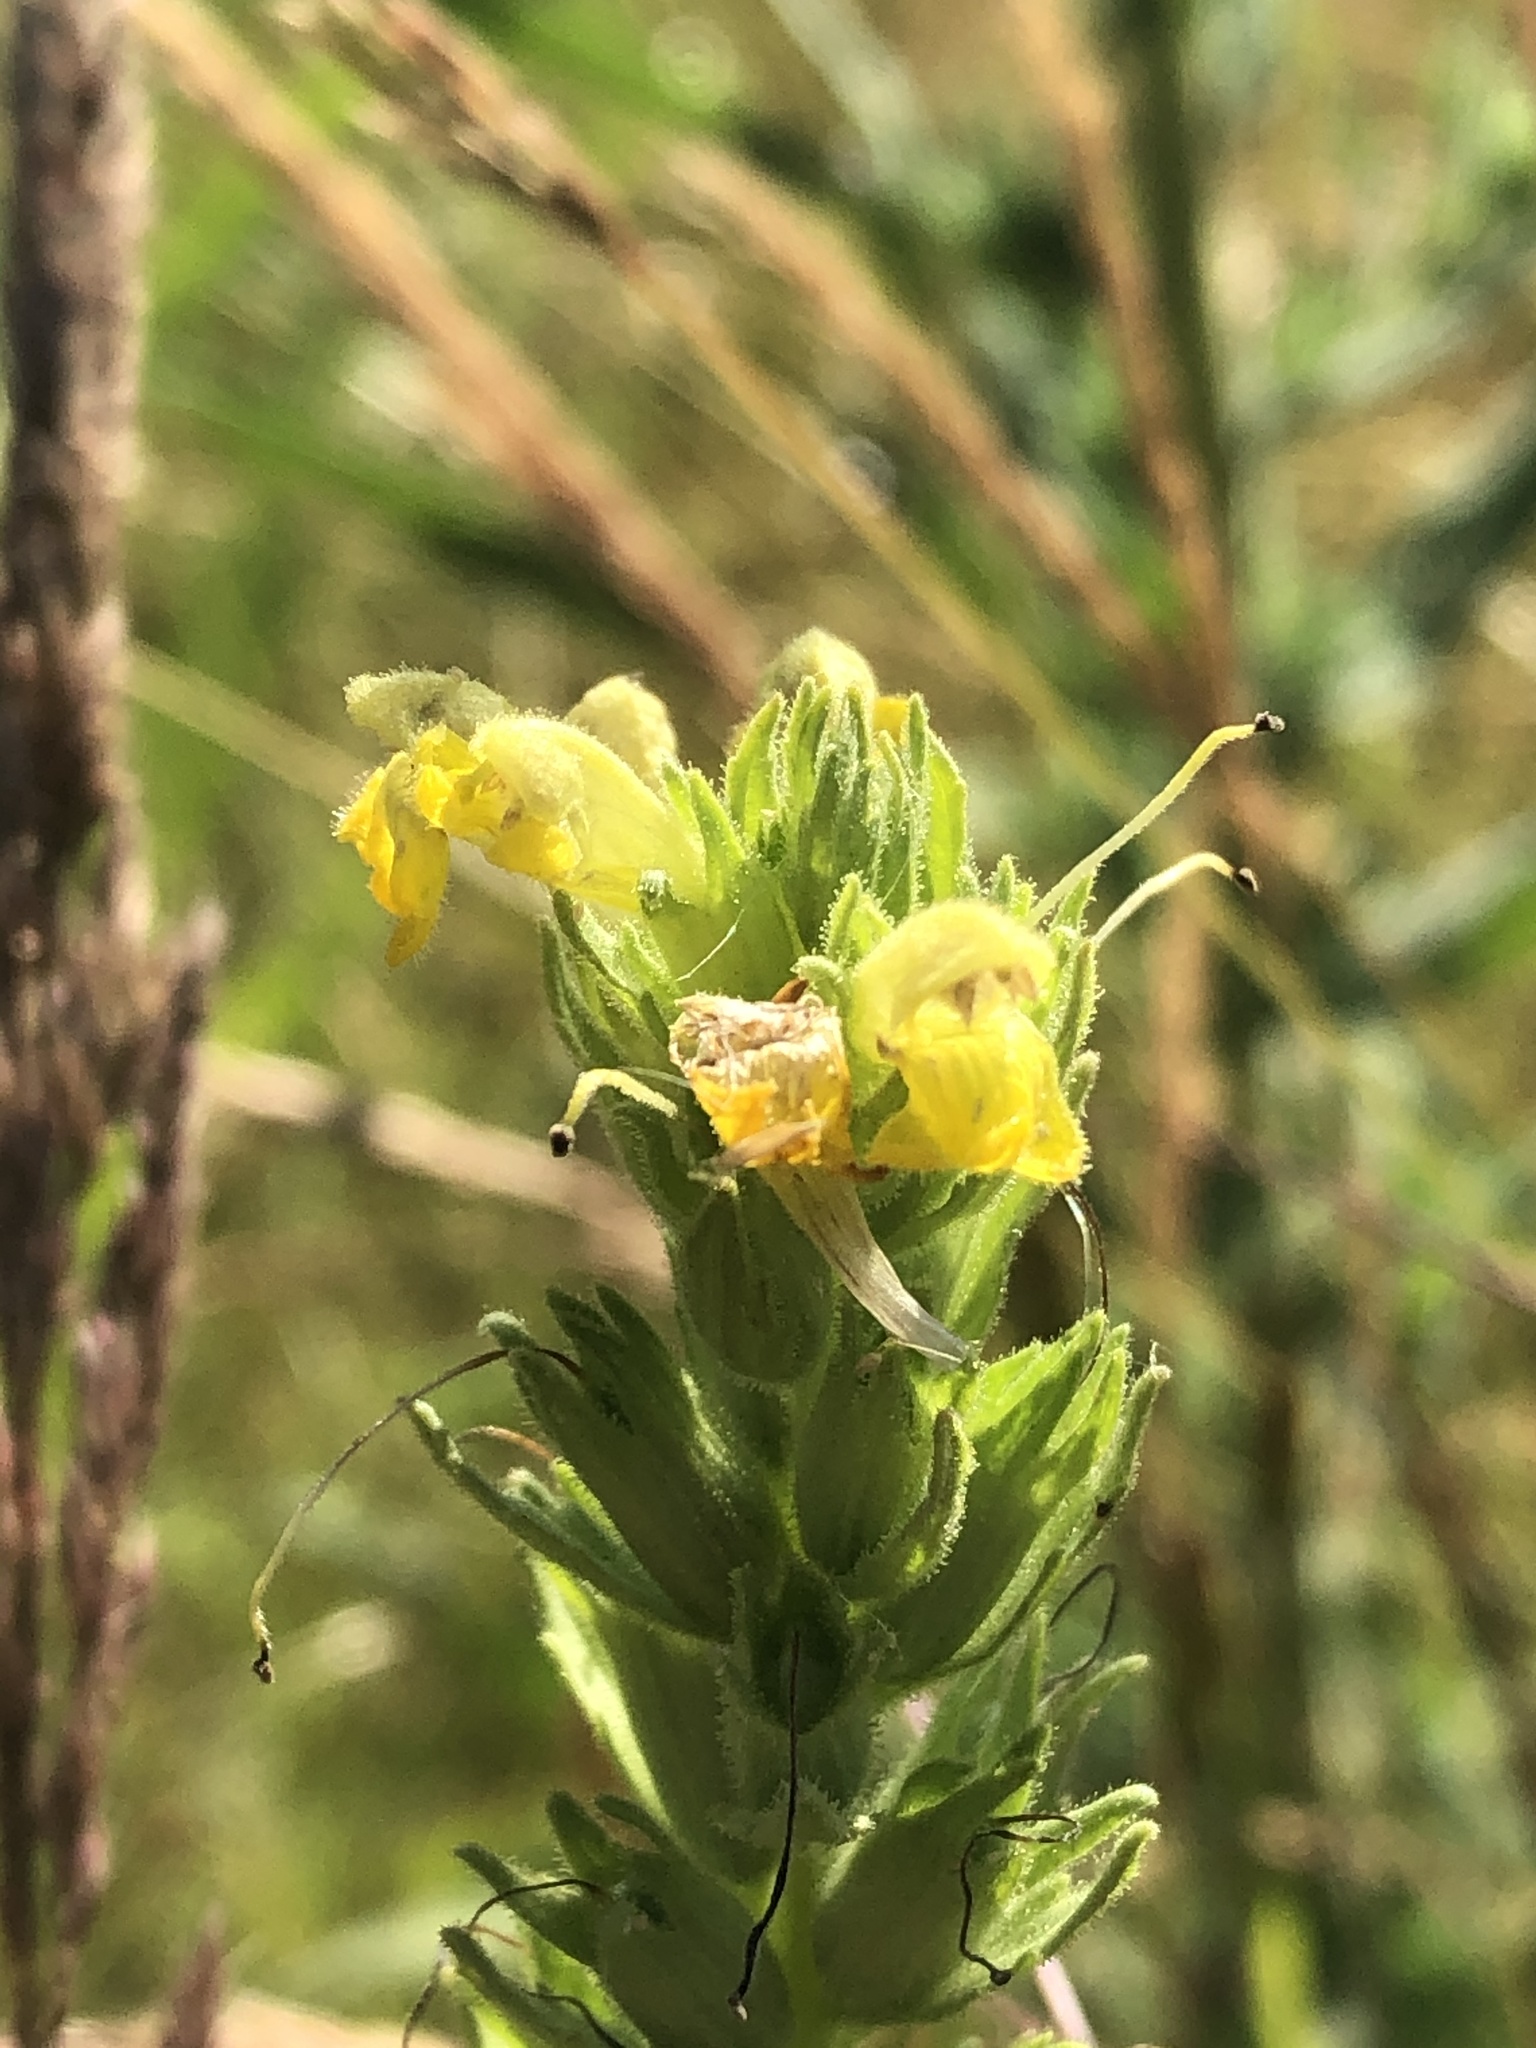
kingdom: Plantae
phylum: Tracheophyta
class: Magnoliopsida
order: Lamiales
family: Orobanchaceae
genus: Bellardia
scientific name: Bellardia viscosa
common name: Sticky parentucellia
